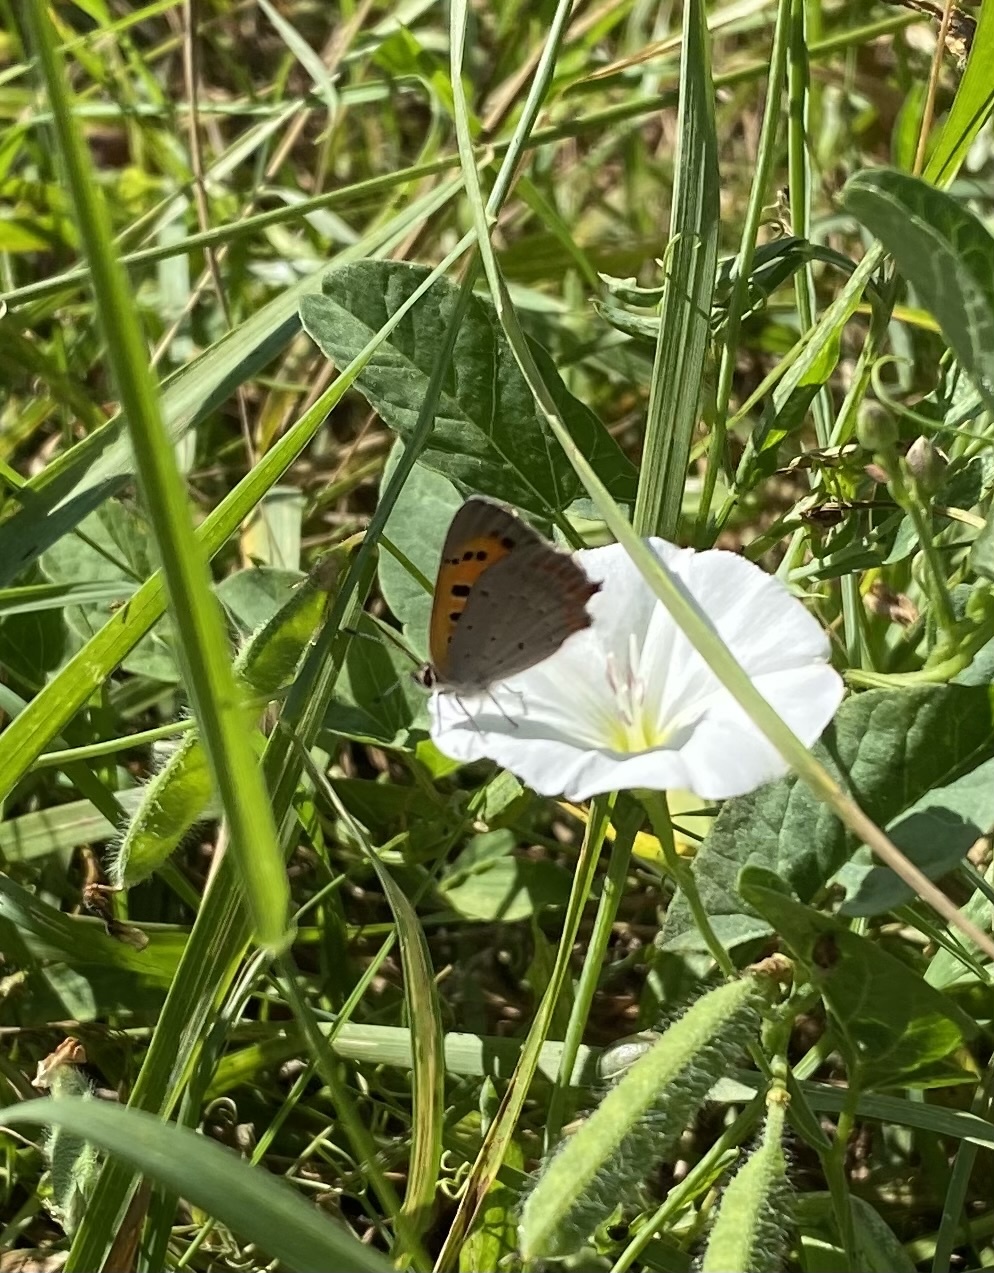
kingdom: Animalia
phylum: Arthropoda
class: Insecta
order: Lepidoptera
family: Lycaenidae
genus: Lycaena
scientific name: Lycaena phlaeas
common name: Small copper
